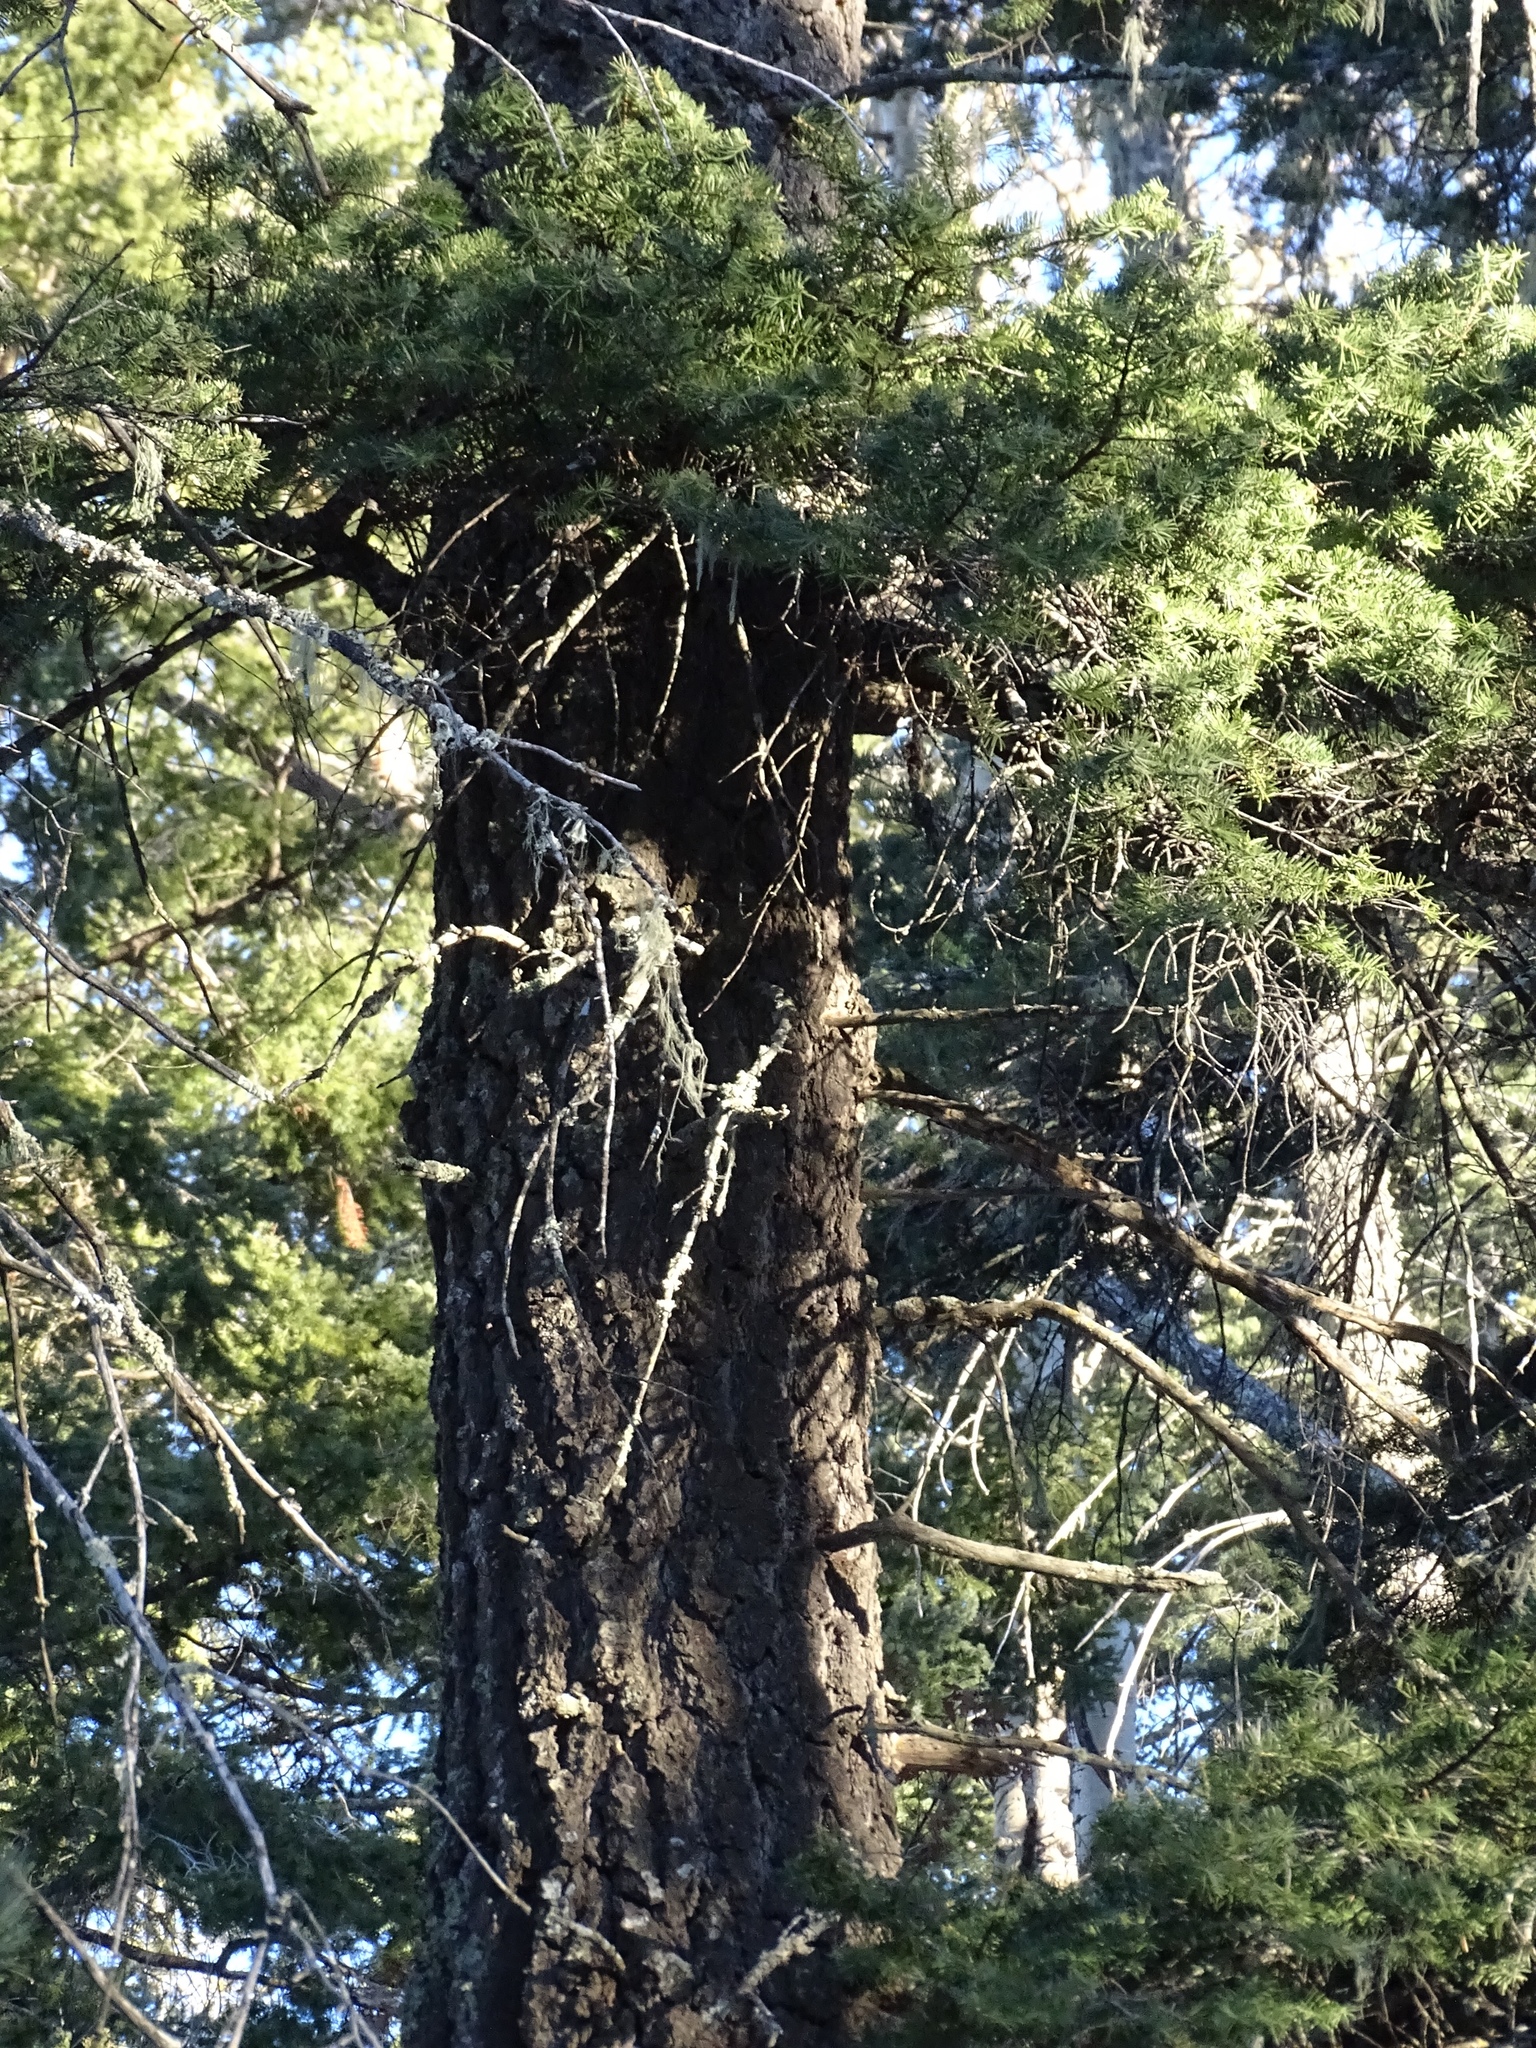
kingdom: Plantae
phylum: Tracheophyta
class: Pinopsida
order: Pinales
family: Pinaceae
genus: Pseudotsuga
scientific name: Pseudotsuga menziesii
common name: Douglas fir
